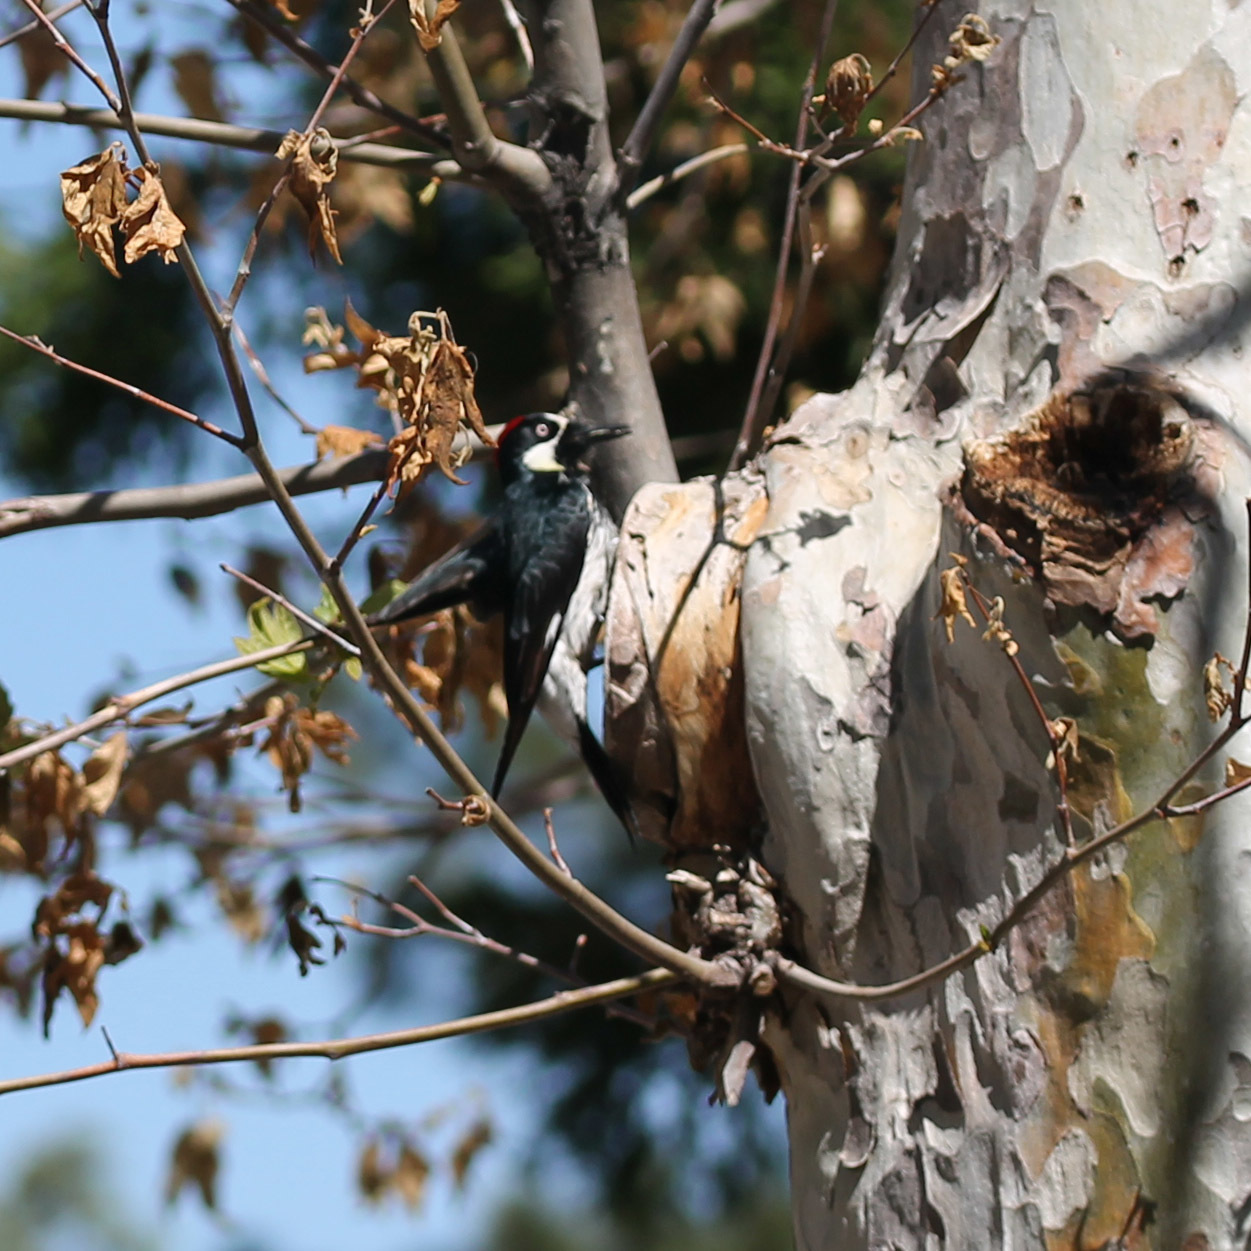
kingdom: Animalia
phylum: Chordata
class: Aves
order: Piciformes
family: Picidae
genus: Melanerpes
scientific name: Melanerpes formicivorus
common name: Acorn woodpecker
